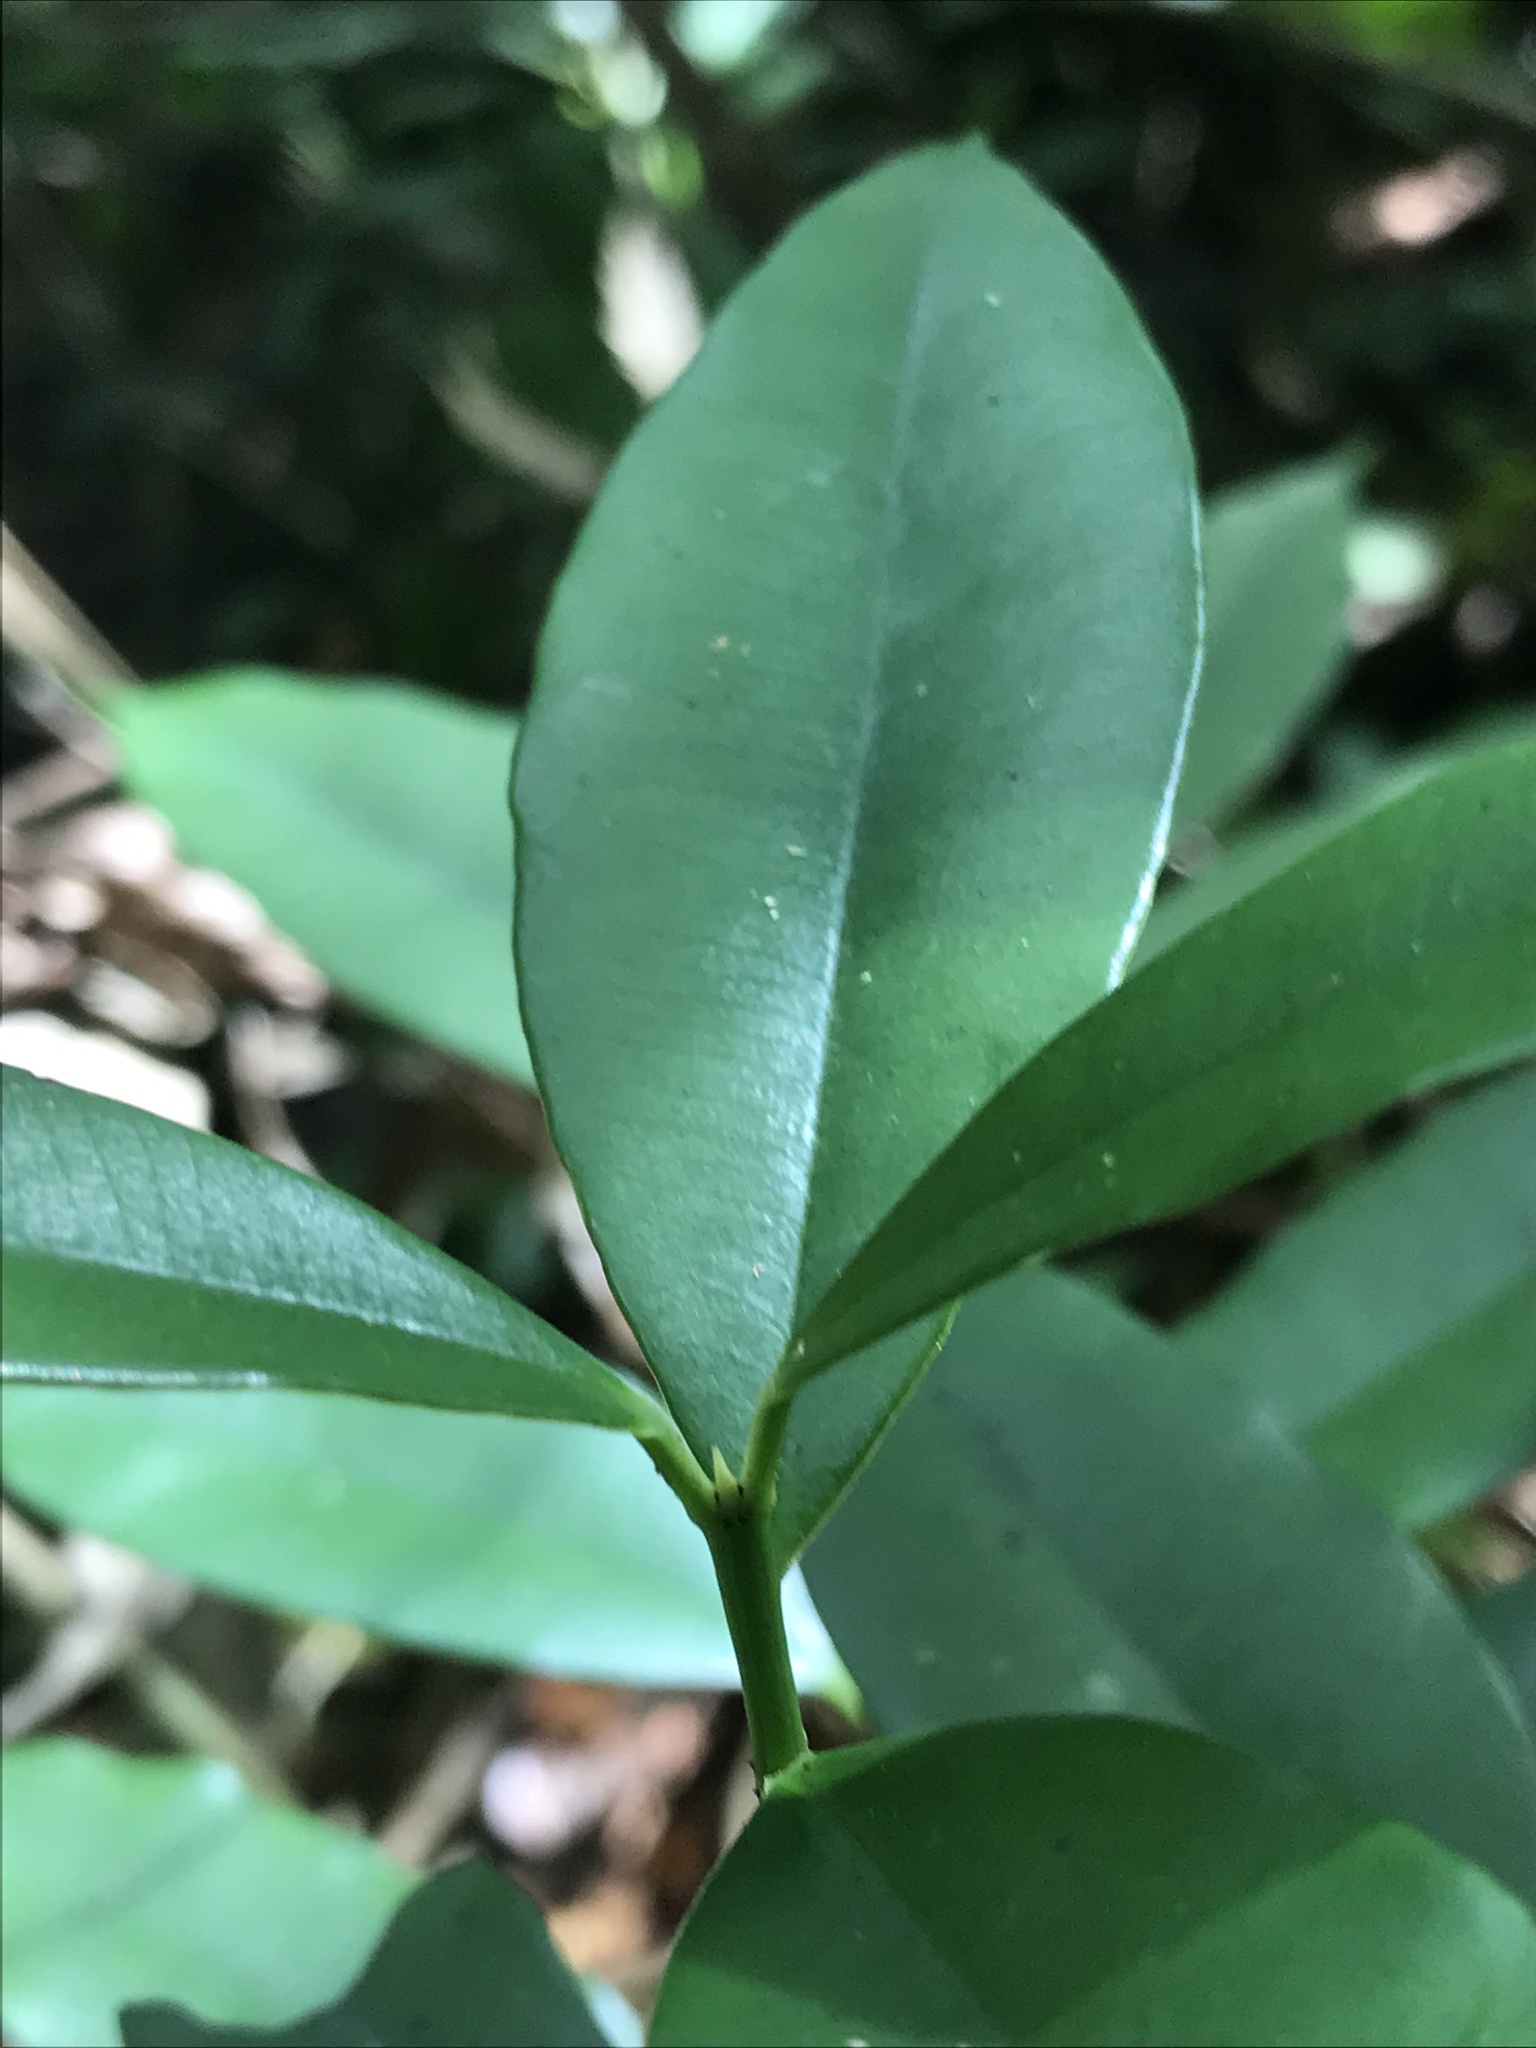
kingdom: Plantae
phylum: Tracheophyta
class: Magnoliopsida
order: Malpighiales
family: Clusiaceae
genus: Symphonia
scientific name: Symphonia globulifera
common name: Boarwood
